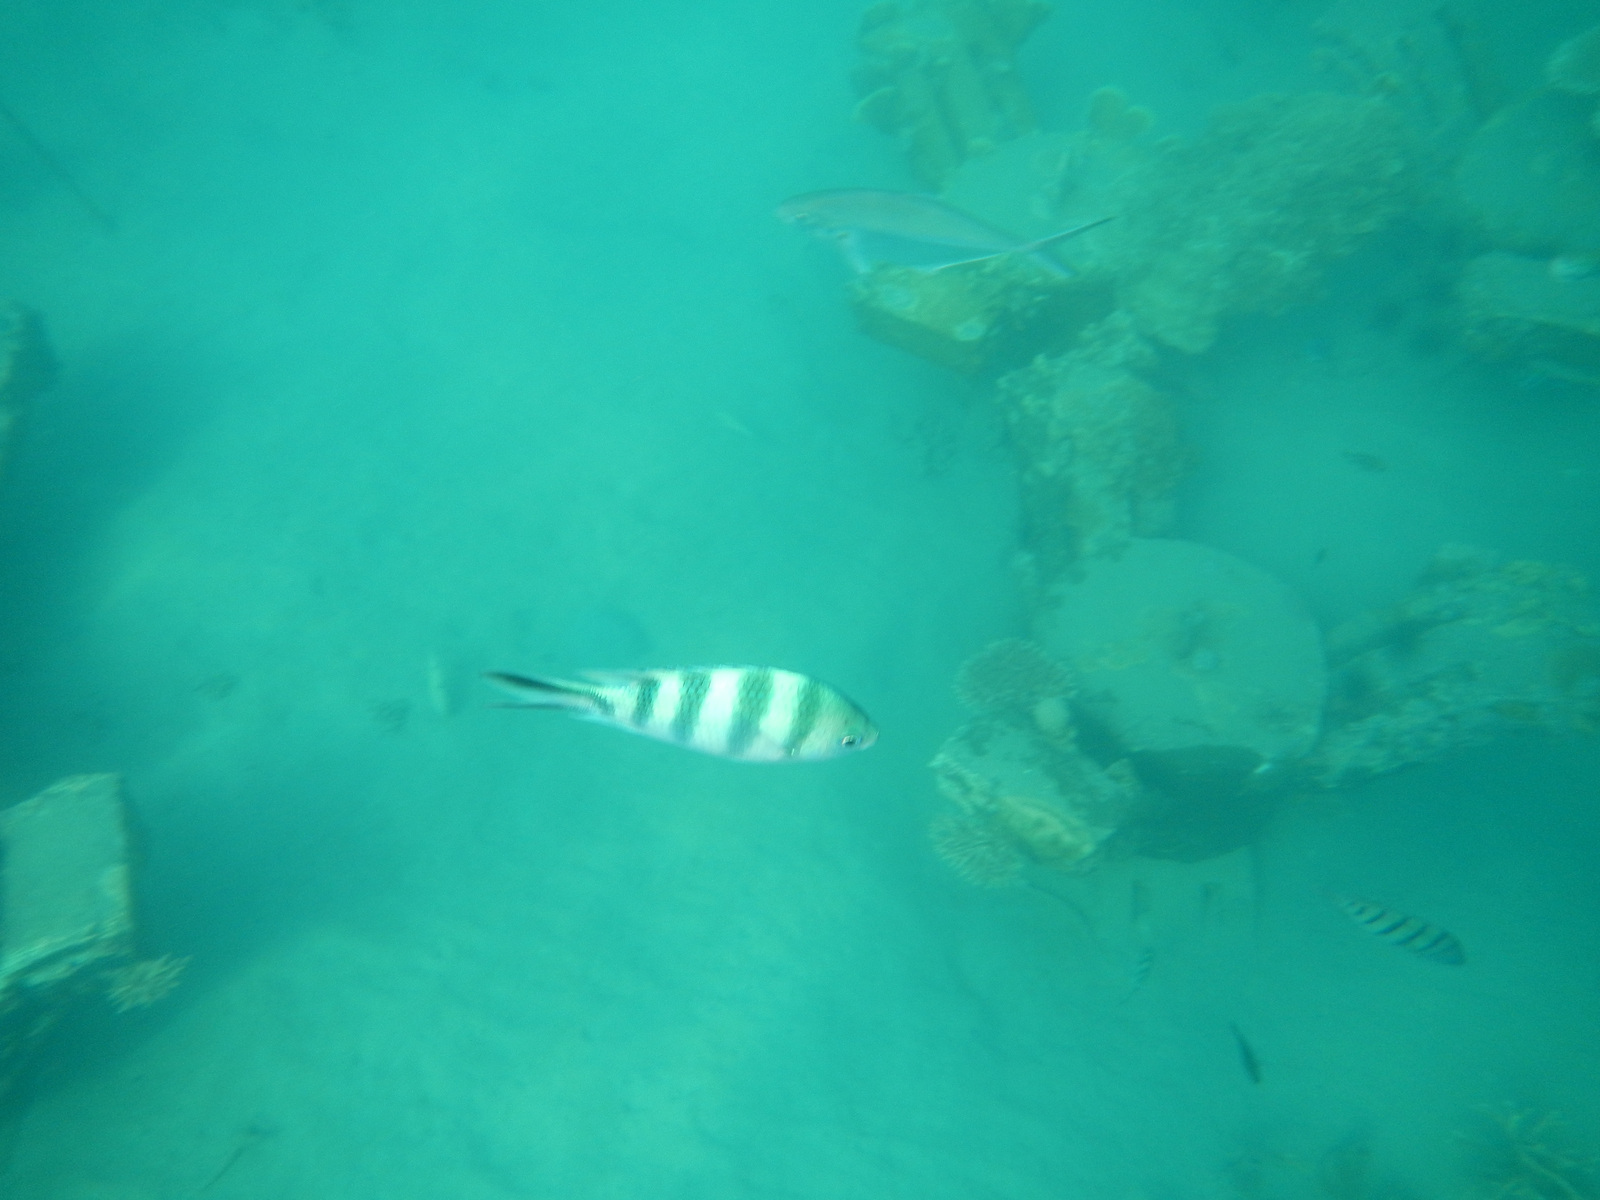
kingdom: Animalia
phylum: Chordata
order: Perciformes
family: Pomacentridae
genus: Abudefduf
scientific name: Abudefduf sexfasciatus
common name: Scissortail sergeant
